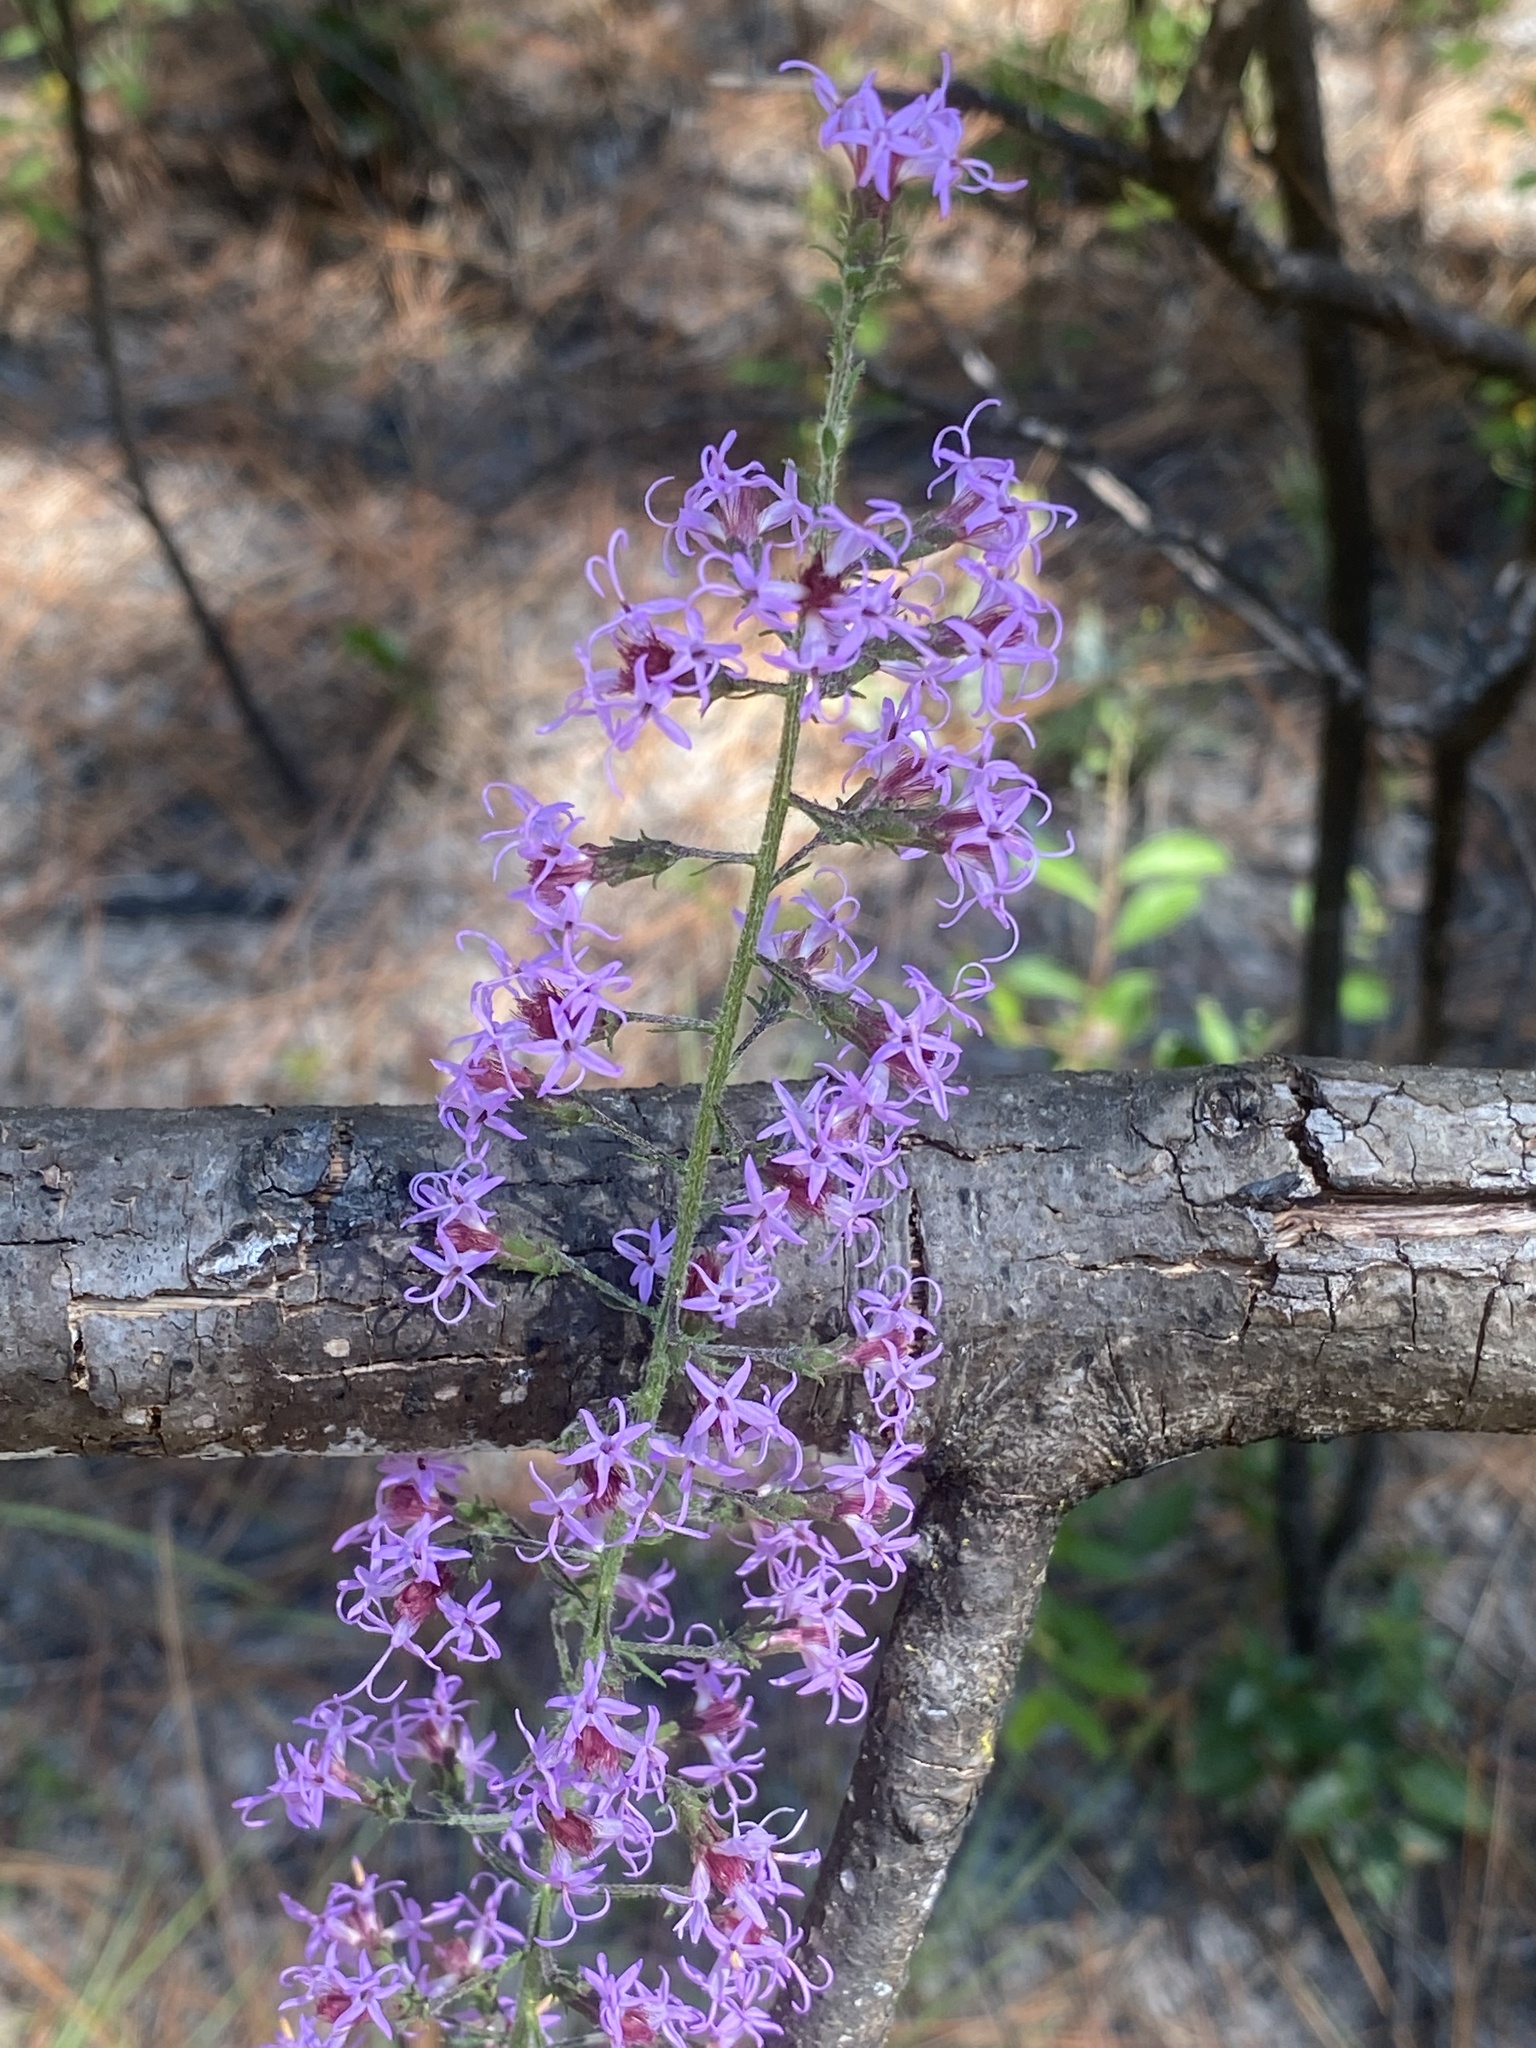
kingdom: Plantae
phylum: Tracheophyta
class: Magnoliopsida
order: Asterales
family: Asteraceae
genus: Liatris
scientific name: Liatris gracilis
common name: Slender gayfeather
